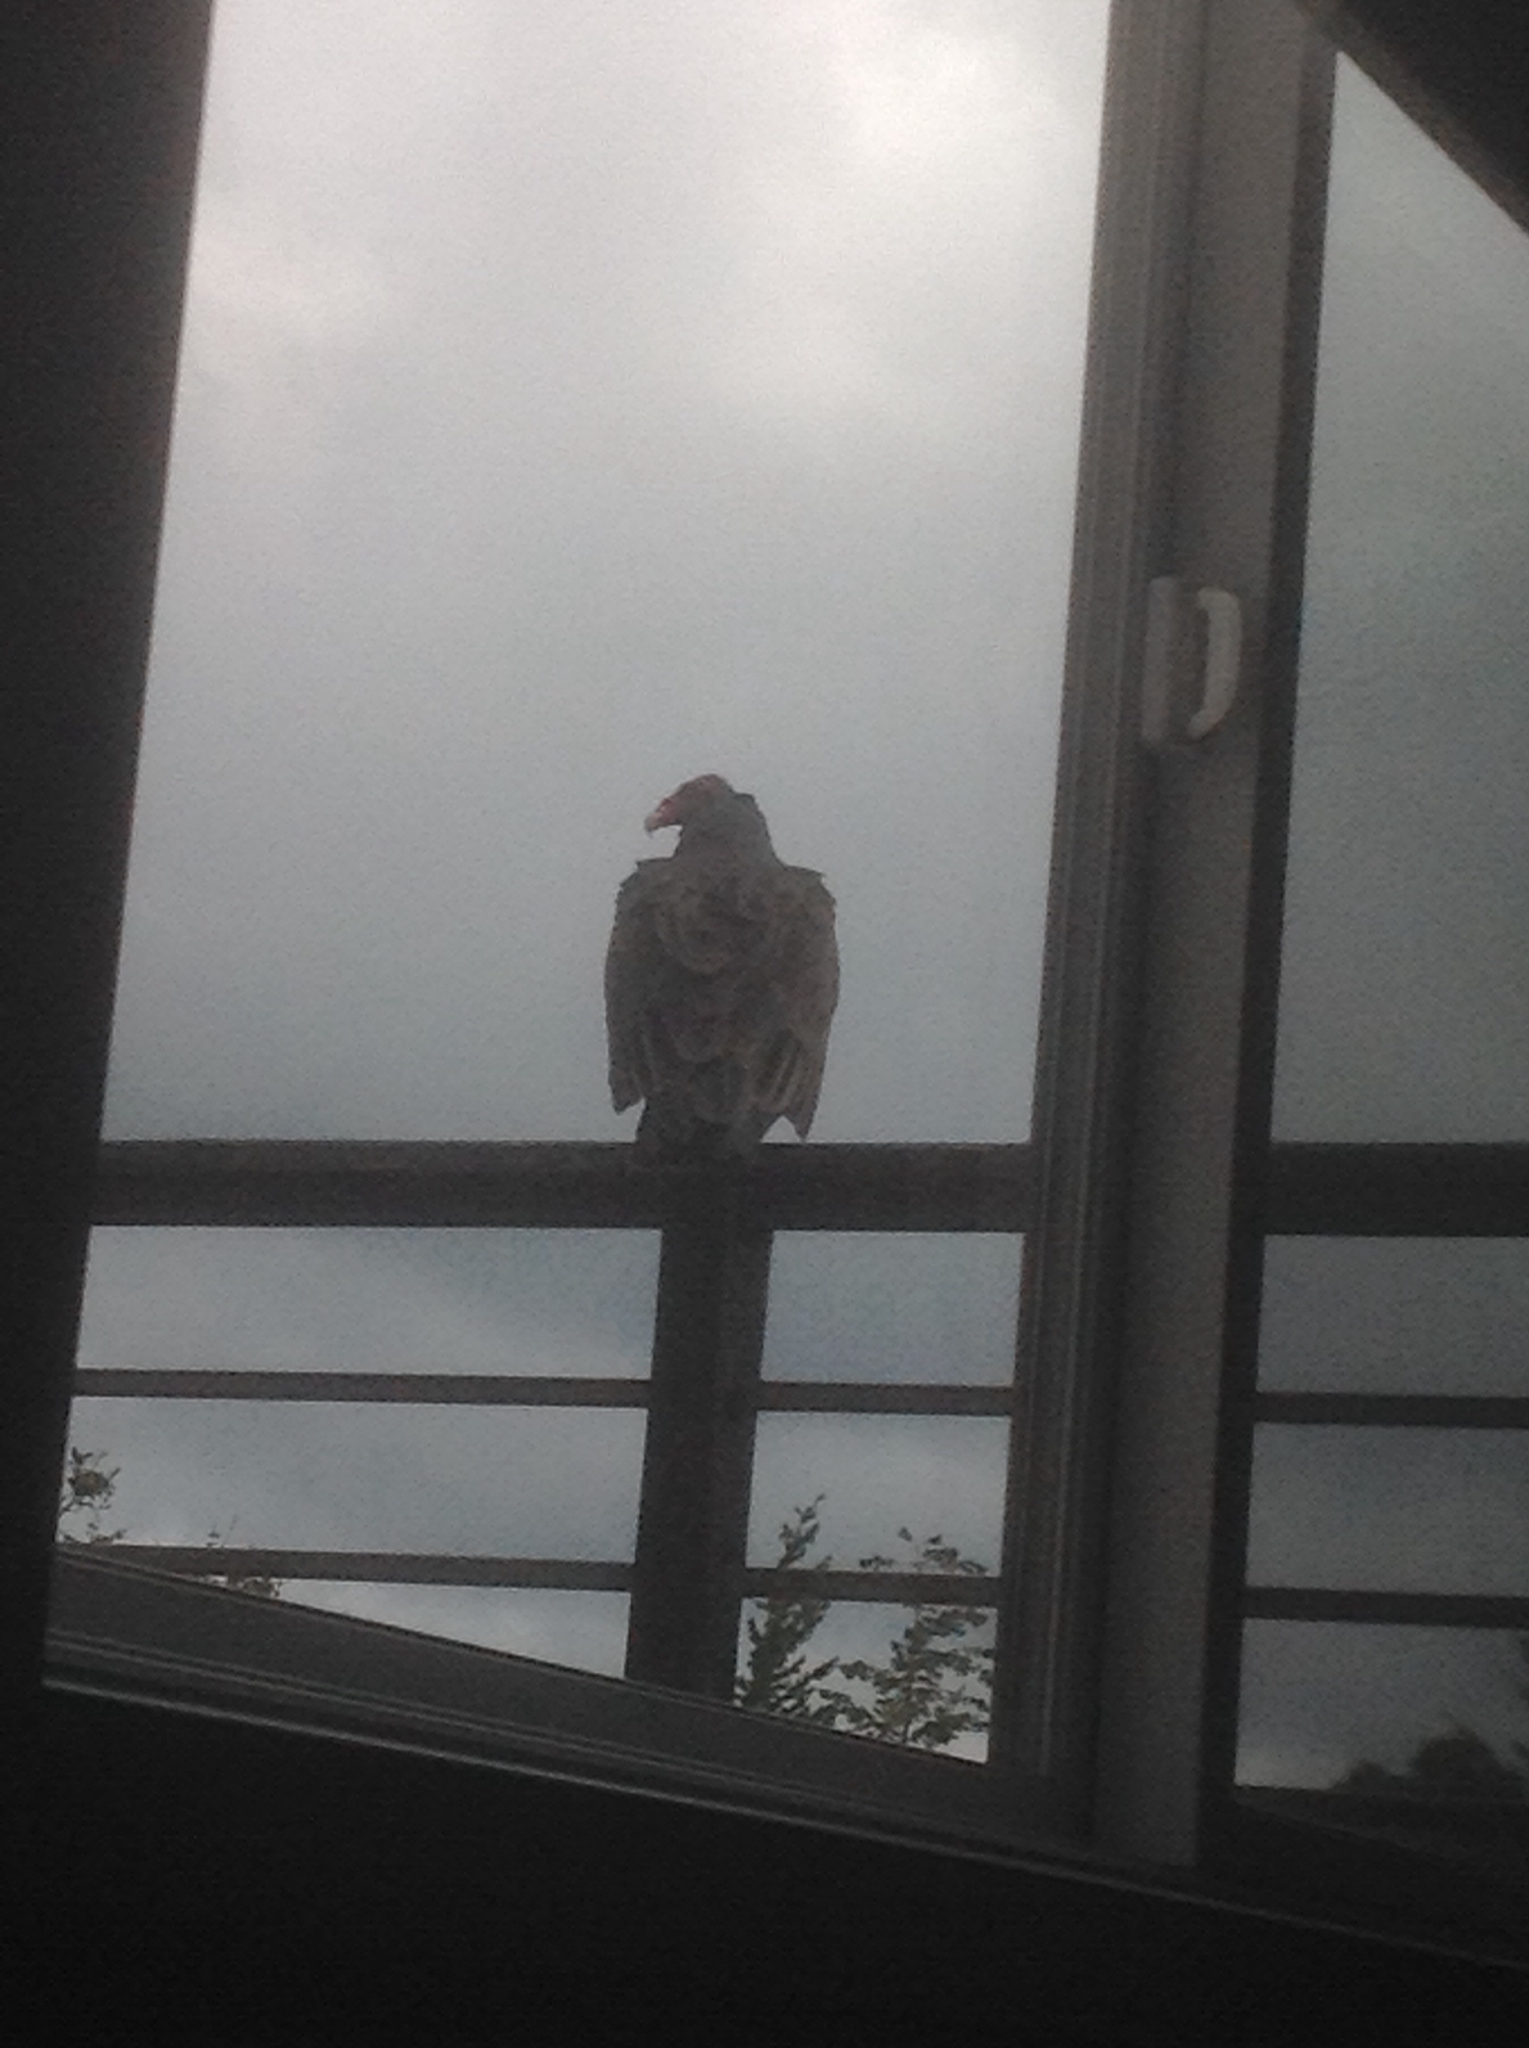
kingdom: Animalia
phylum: Chordata
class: Aves
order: Accipitriformes
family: Cathartidae
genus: Cathartes
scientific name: Cathartes aura
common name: Turkey vulture
